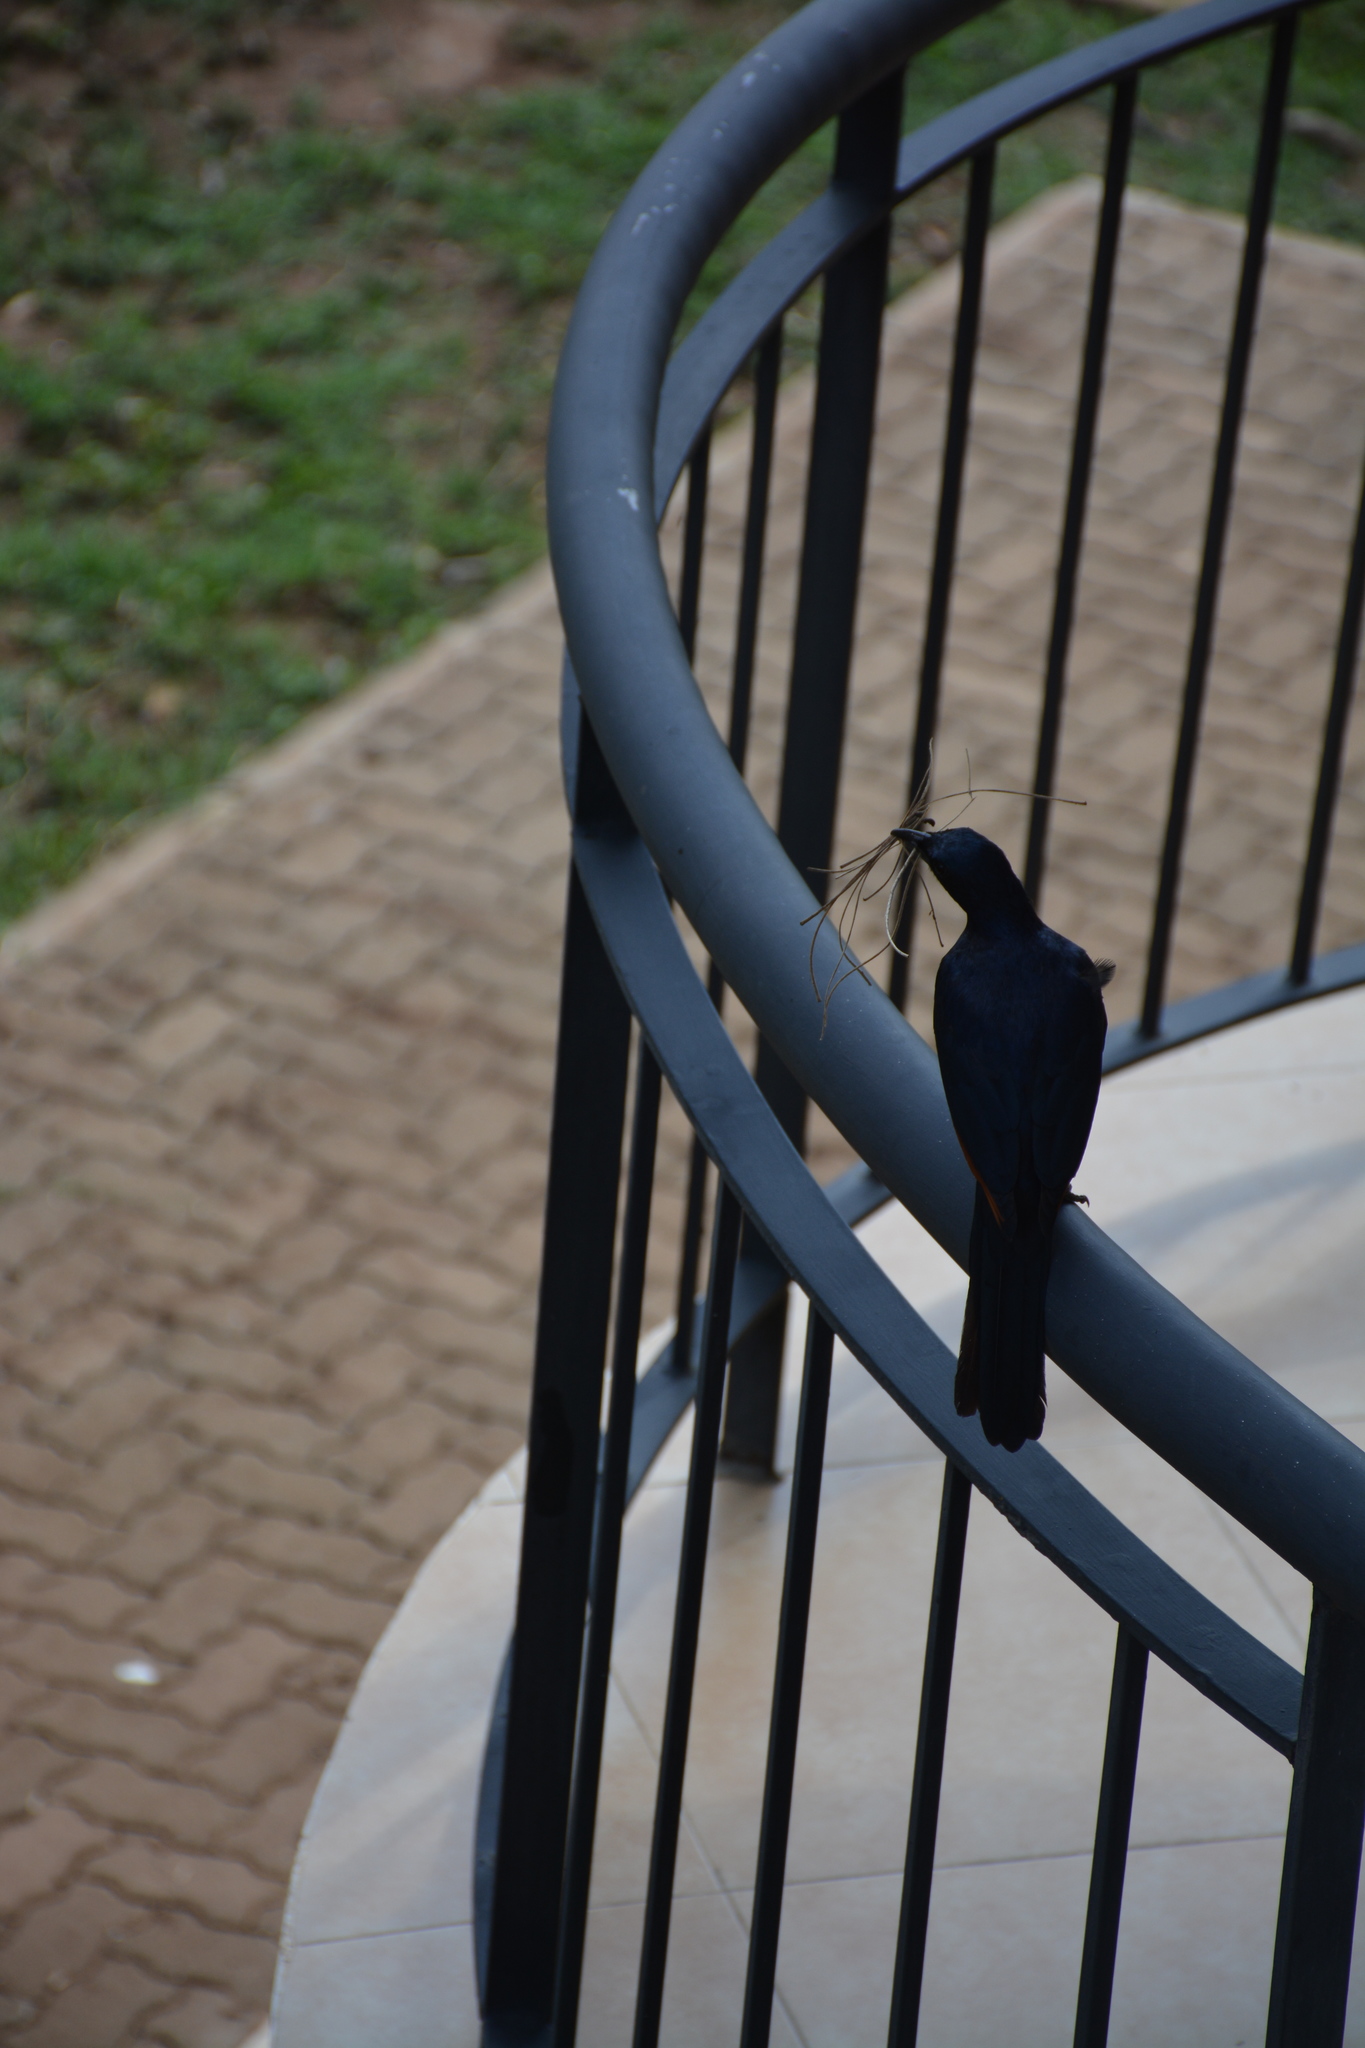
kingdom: Animalia
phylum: Chordata
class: Aves
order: Passeriformes
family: Sturnidae
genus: Onychognathus
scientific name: Onychognathus morio
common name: Red-winged starling
